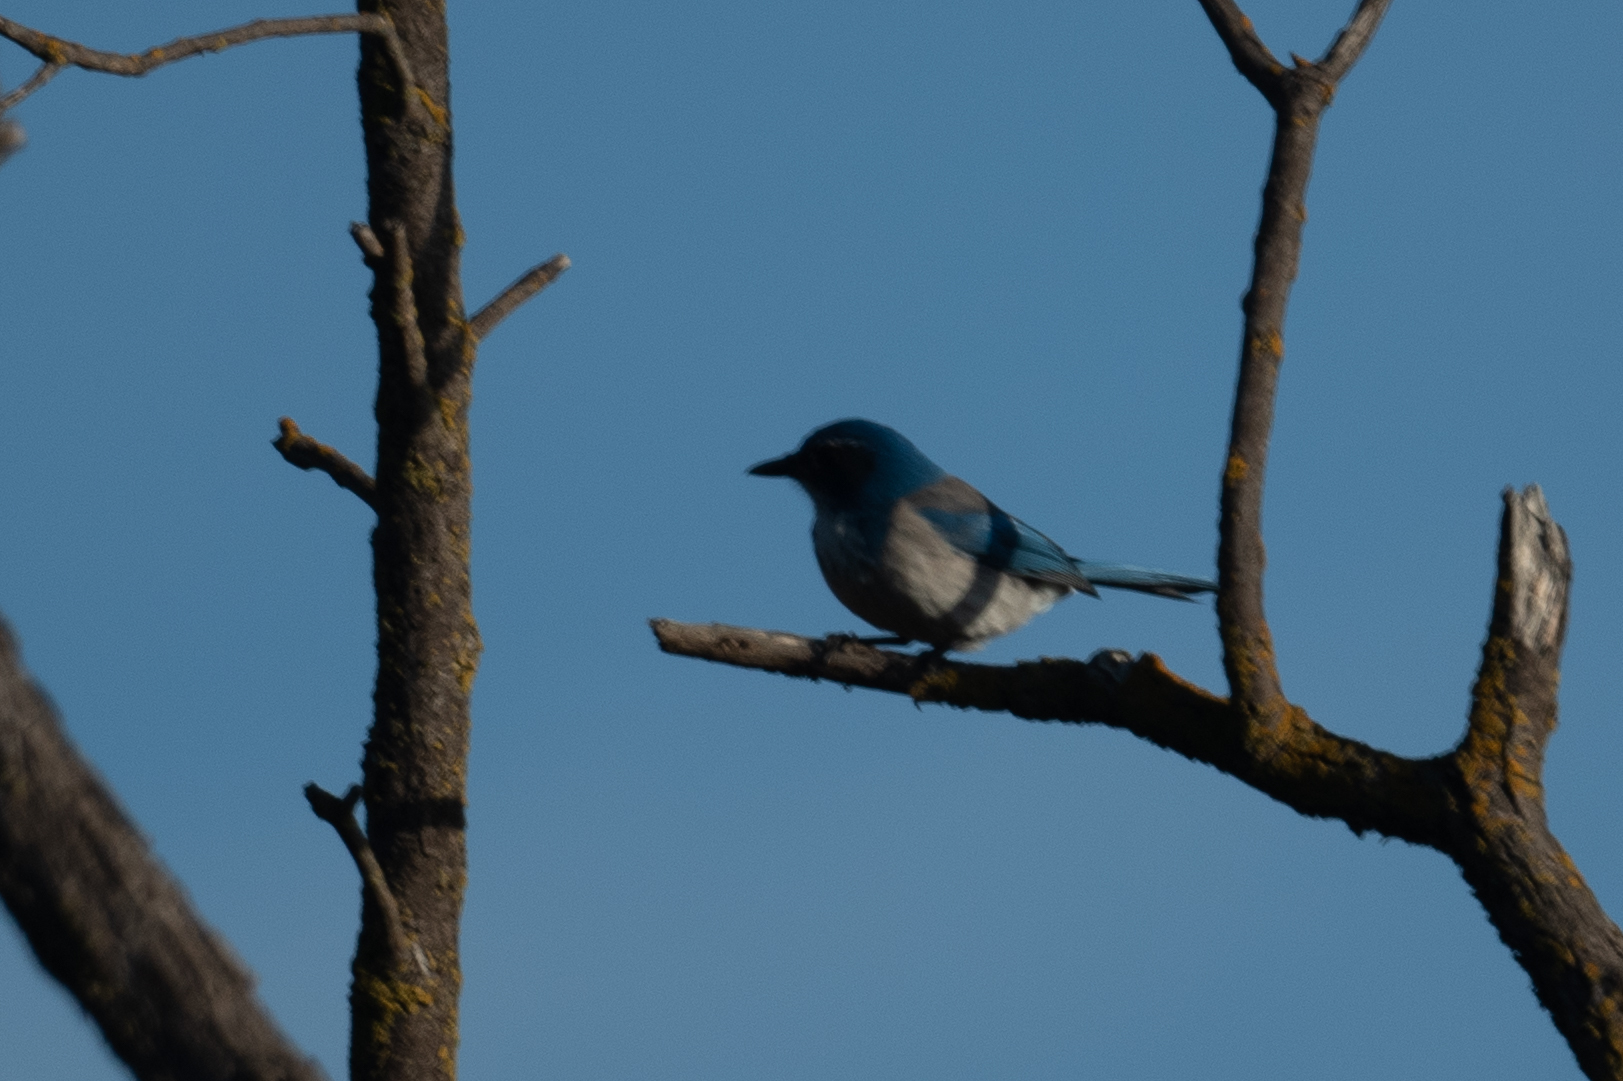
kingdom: Animalia
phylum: Chordata
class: Aves
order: Passeriformes
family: Corvidae
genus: Aphelocoma
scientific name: Aphelocoma californica
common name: California scrub-jay
